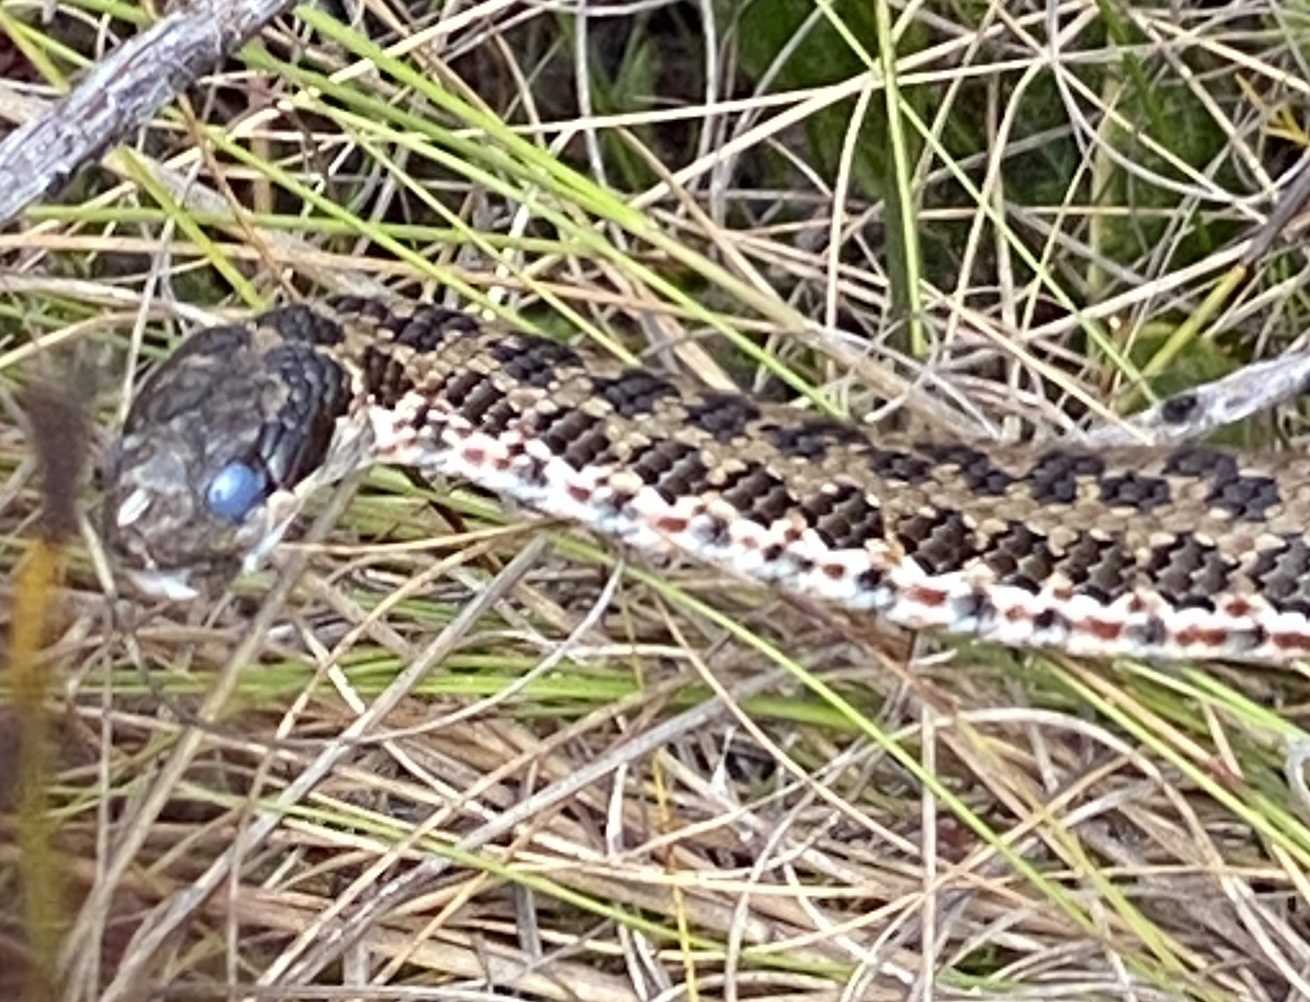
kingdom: Animalia
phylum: Chordata
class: Squamata
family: Psammophiidae
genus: Psammophylax
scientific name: Psammophylax rhombeatus
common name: Rhombic skaapsteker
